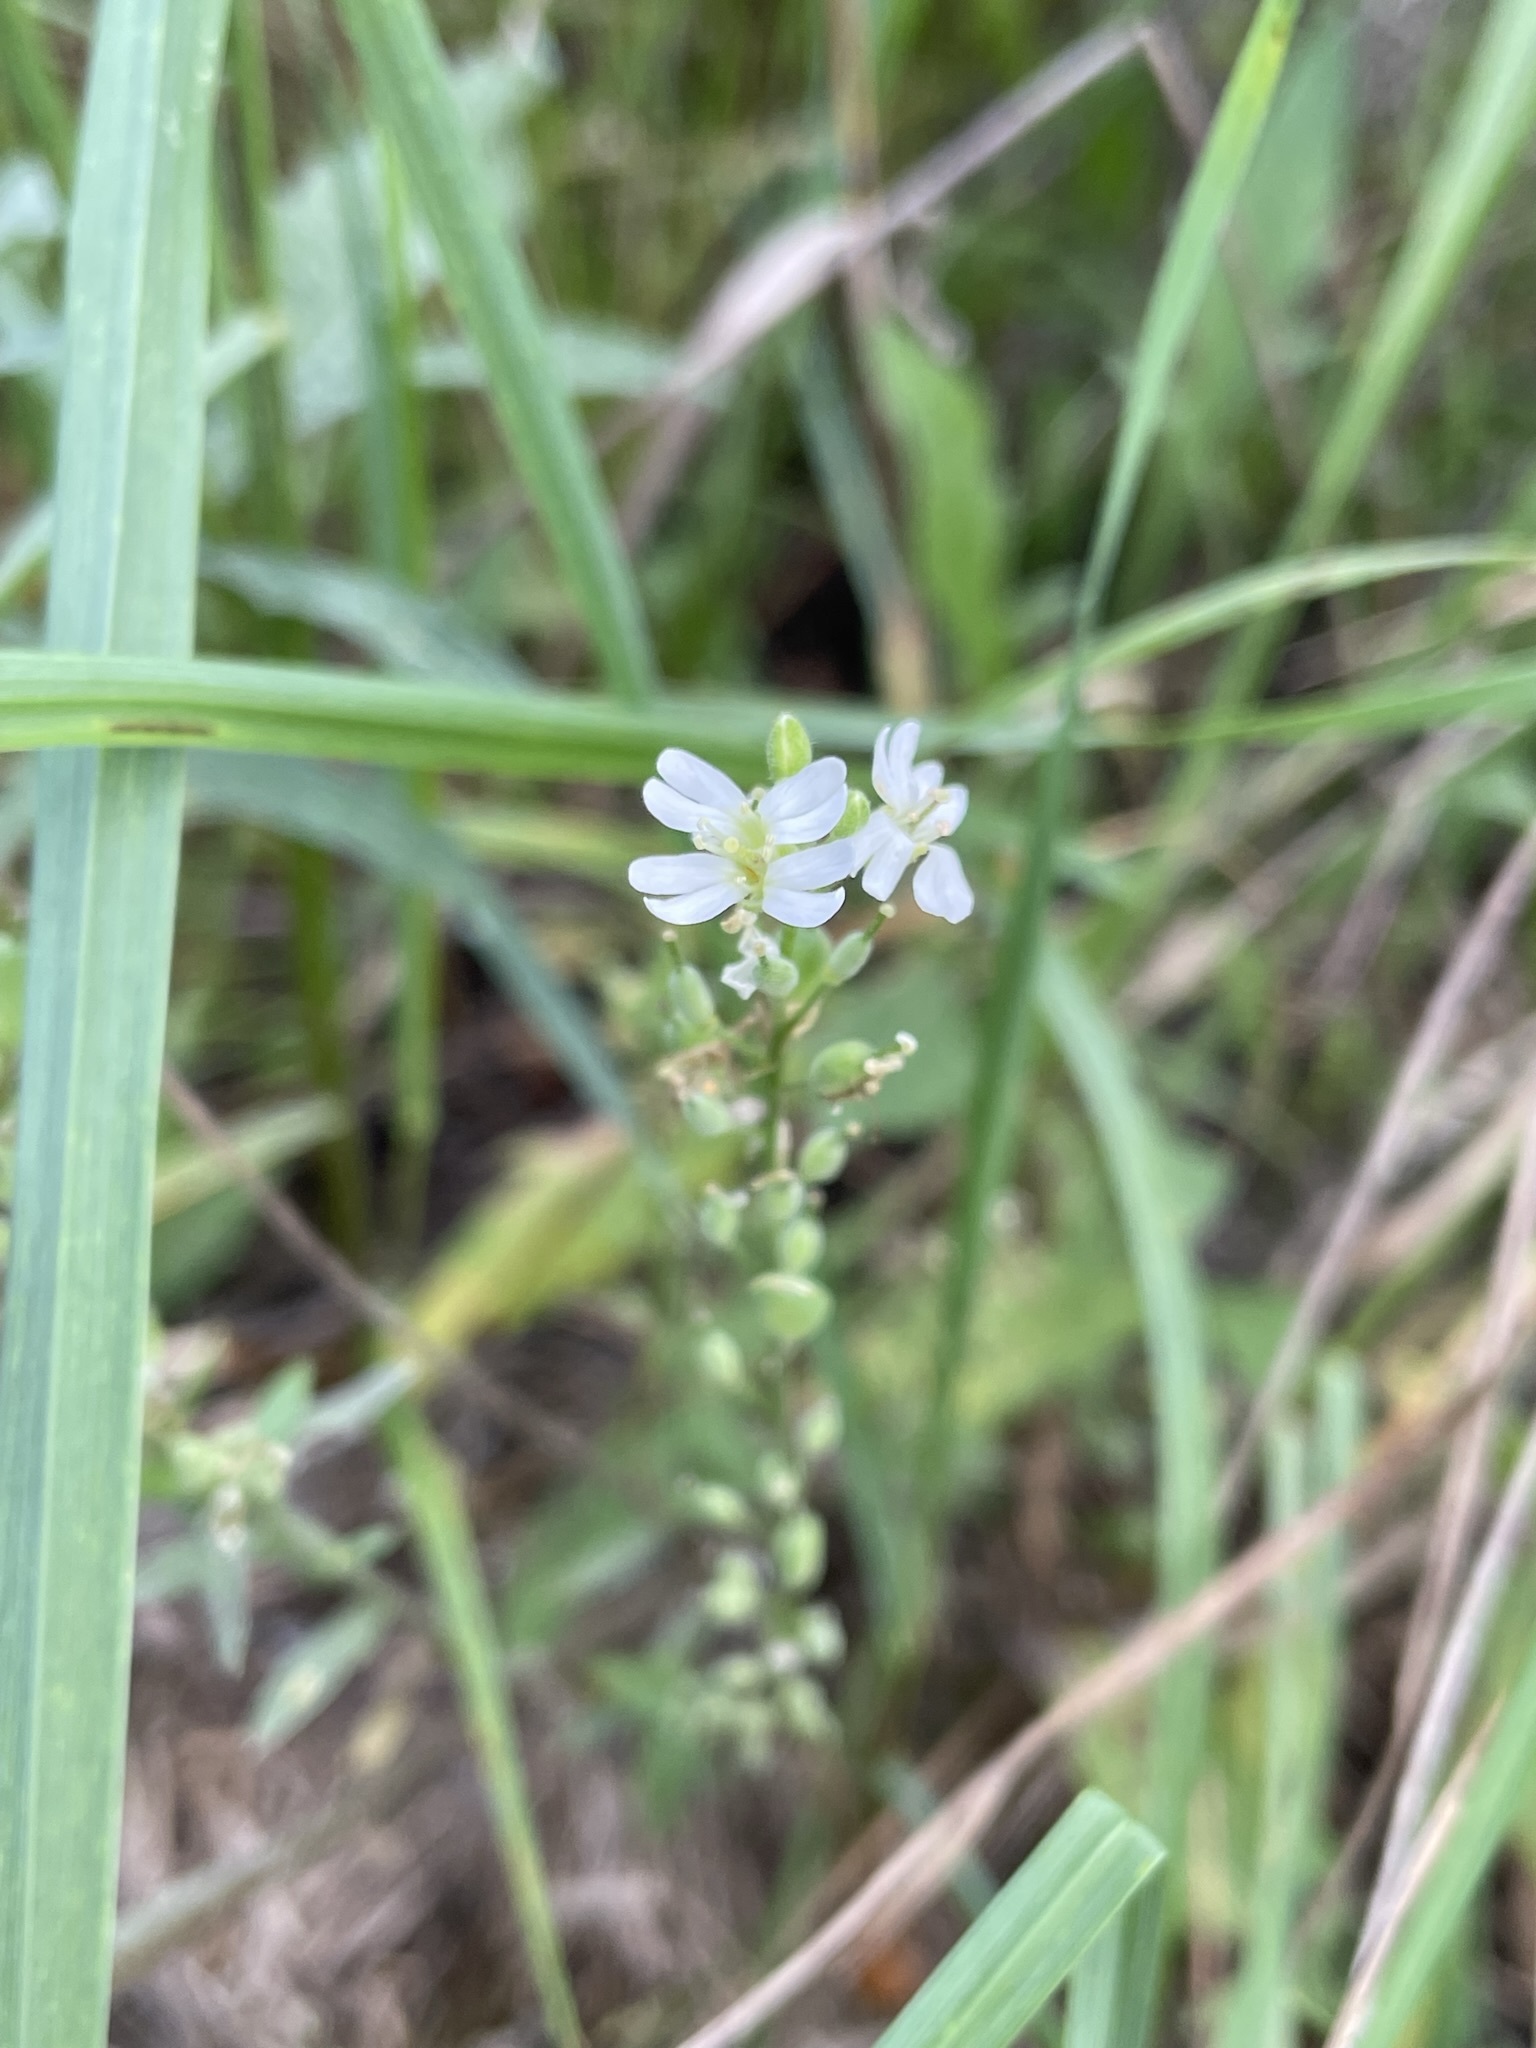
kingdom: Plantae
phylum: Tracheophyta
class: Magnoliopsida
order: Brassicales
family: Brassicaceae
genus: Berteroa
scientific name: Berteroa incana
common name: Hoary alison
